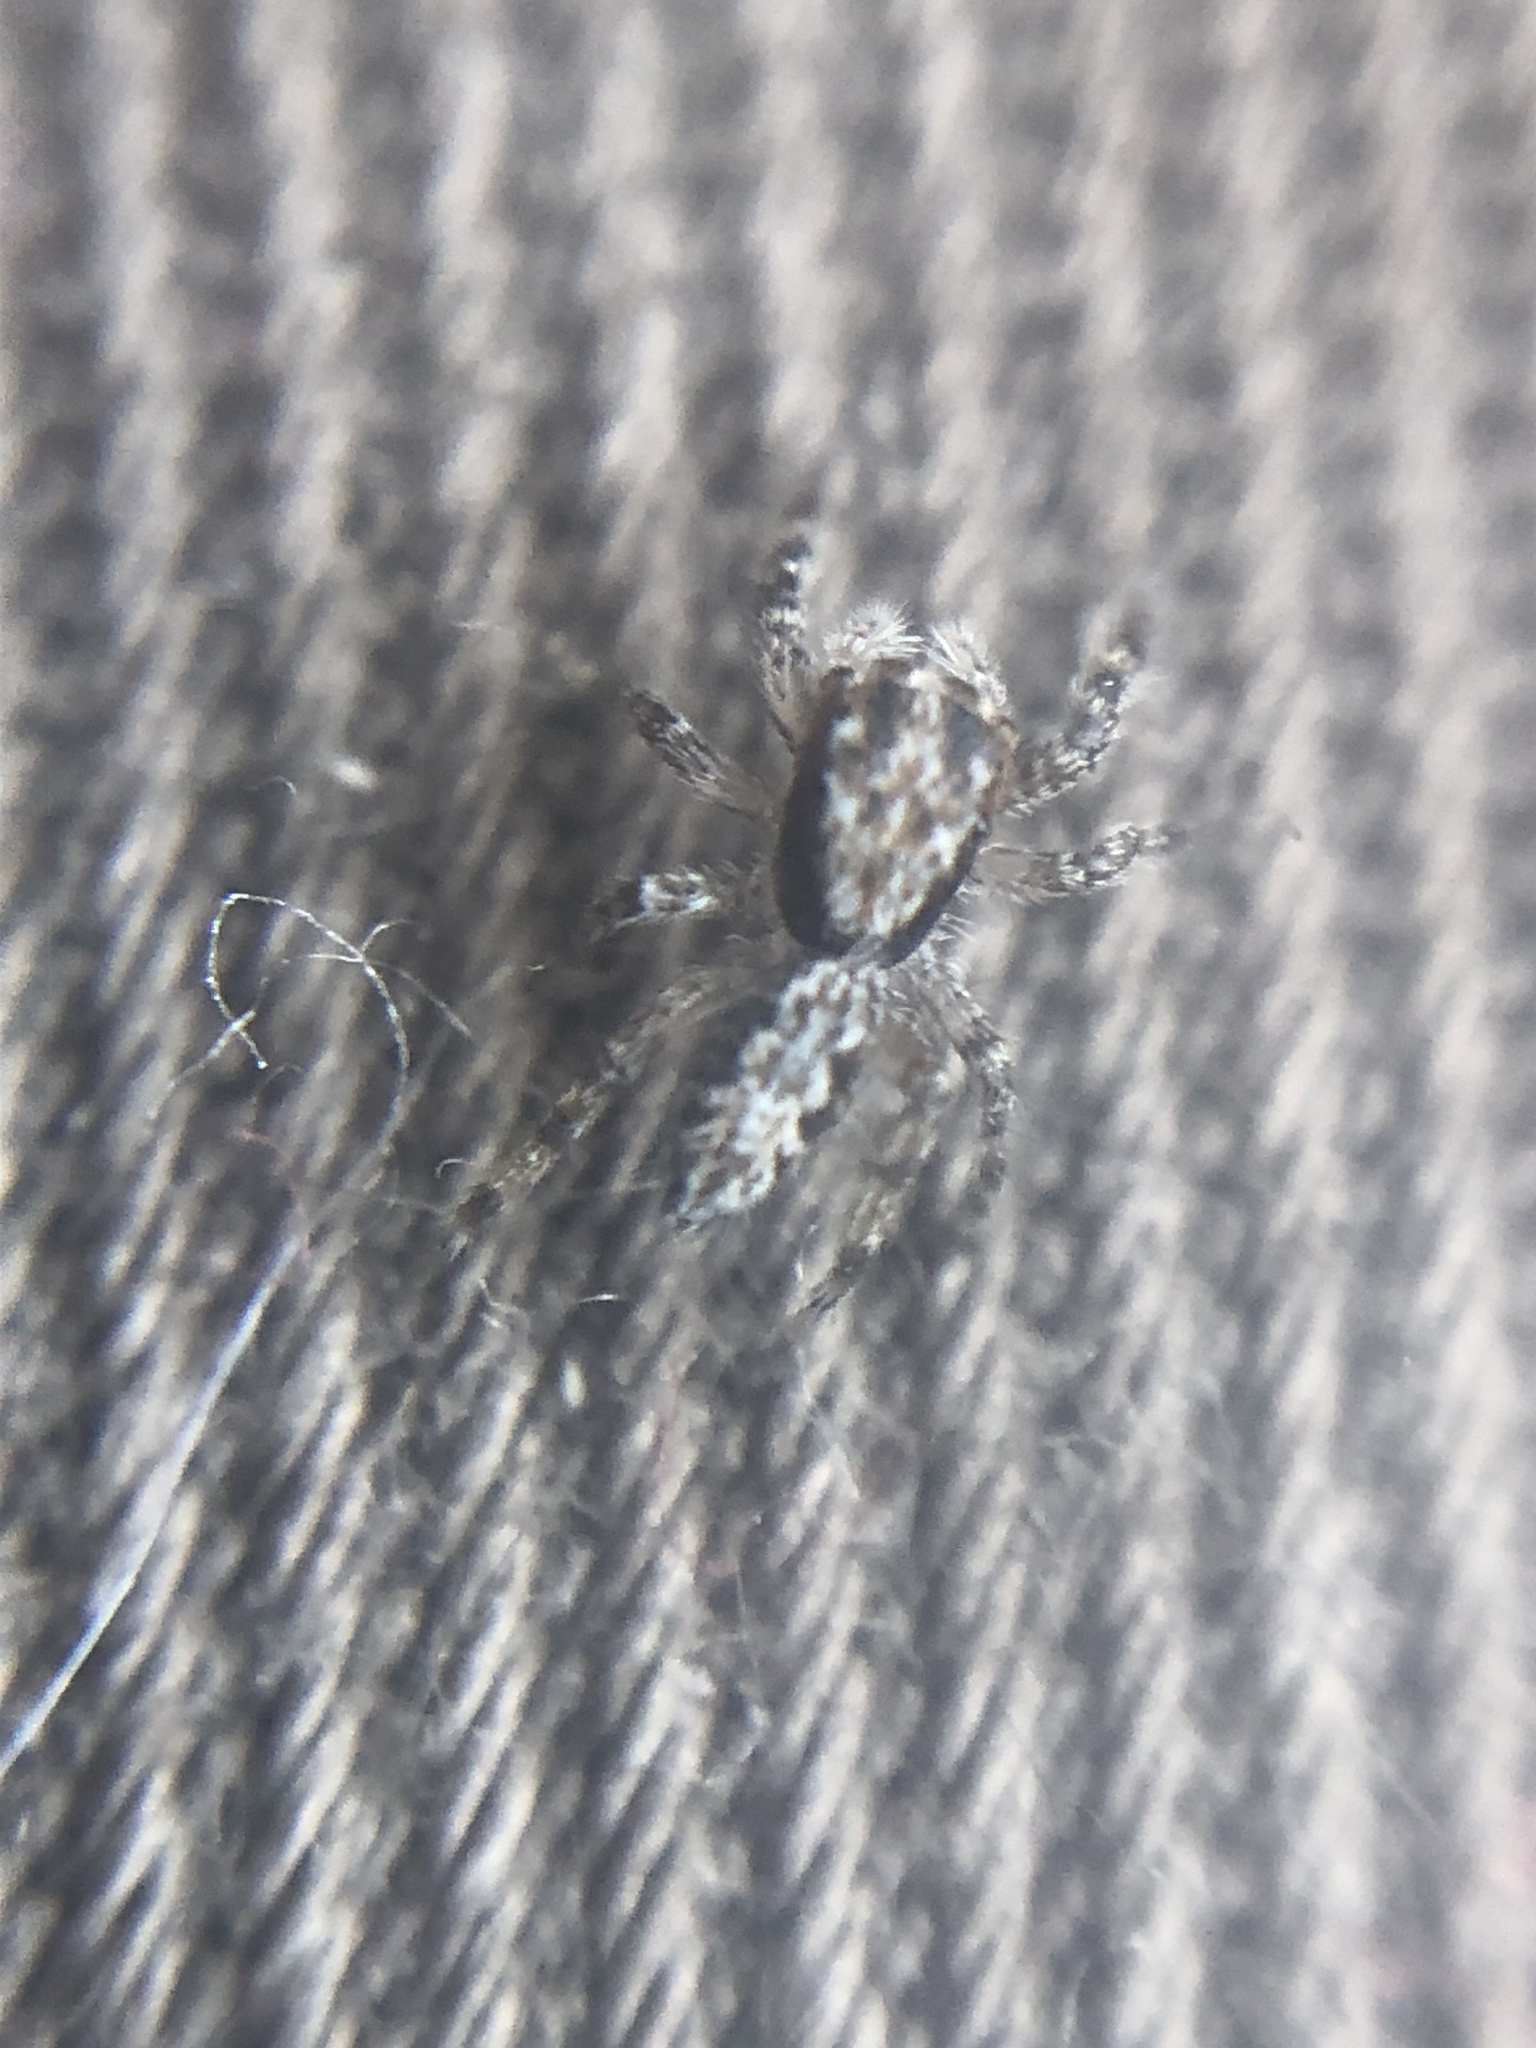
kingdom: Animalia
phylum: Arthropoda
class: Arachnida
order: Araneae
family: Salticidae
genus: Platycryptus
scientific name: Platycryptus californicus
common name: Jumping spiders
